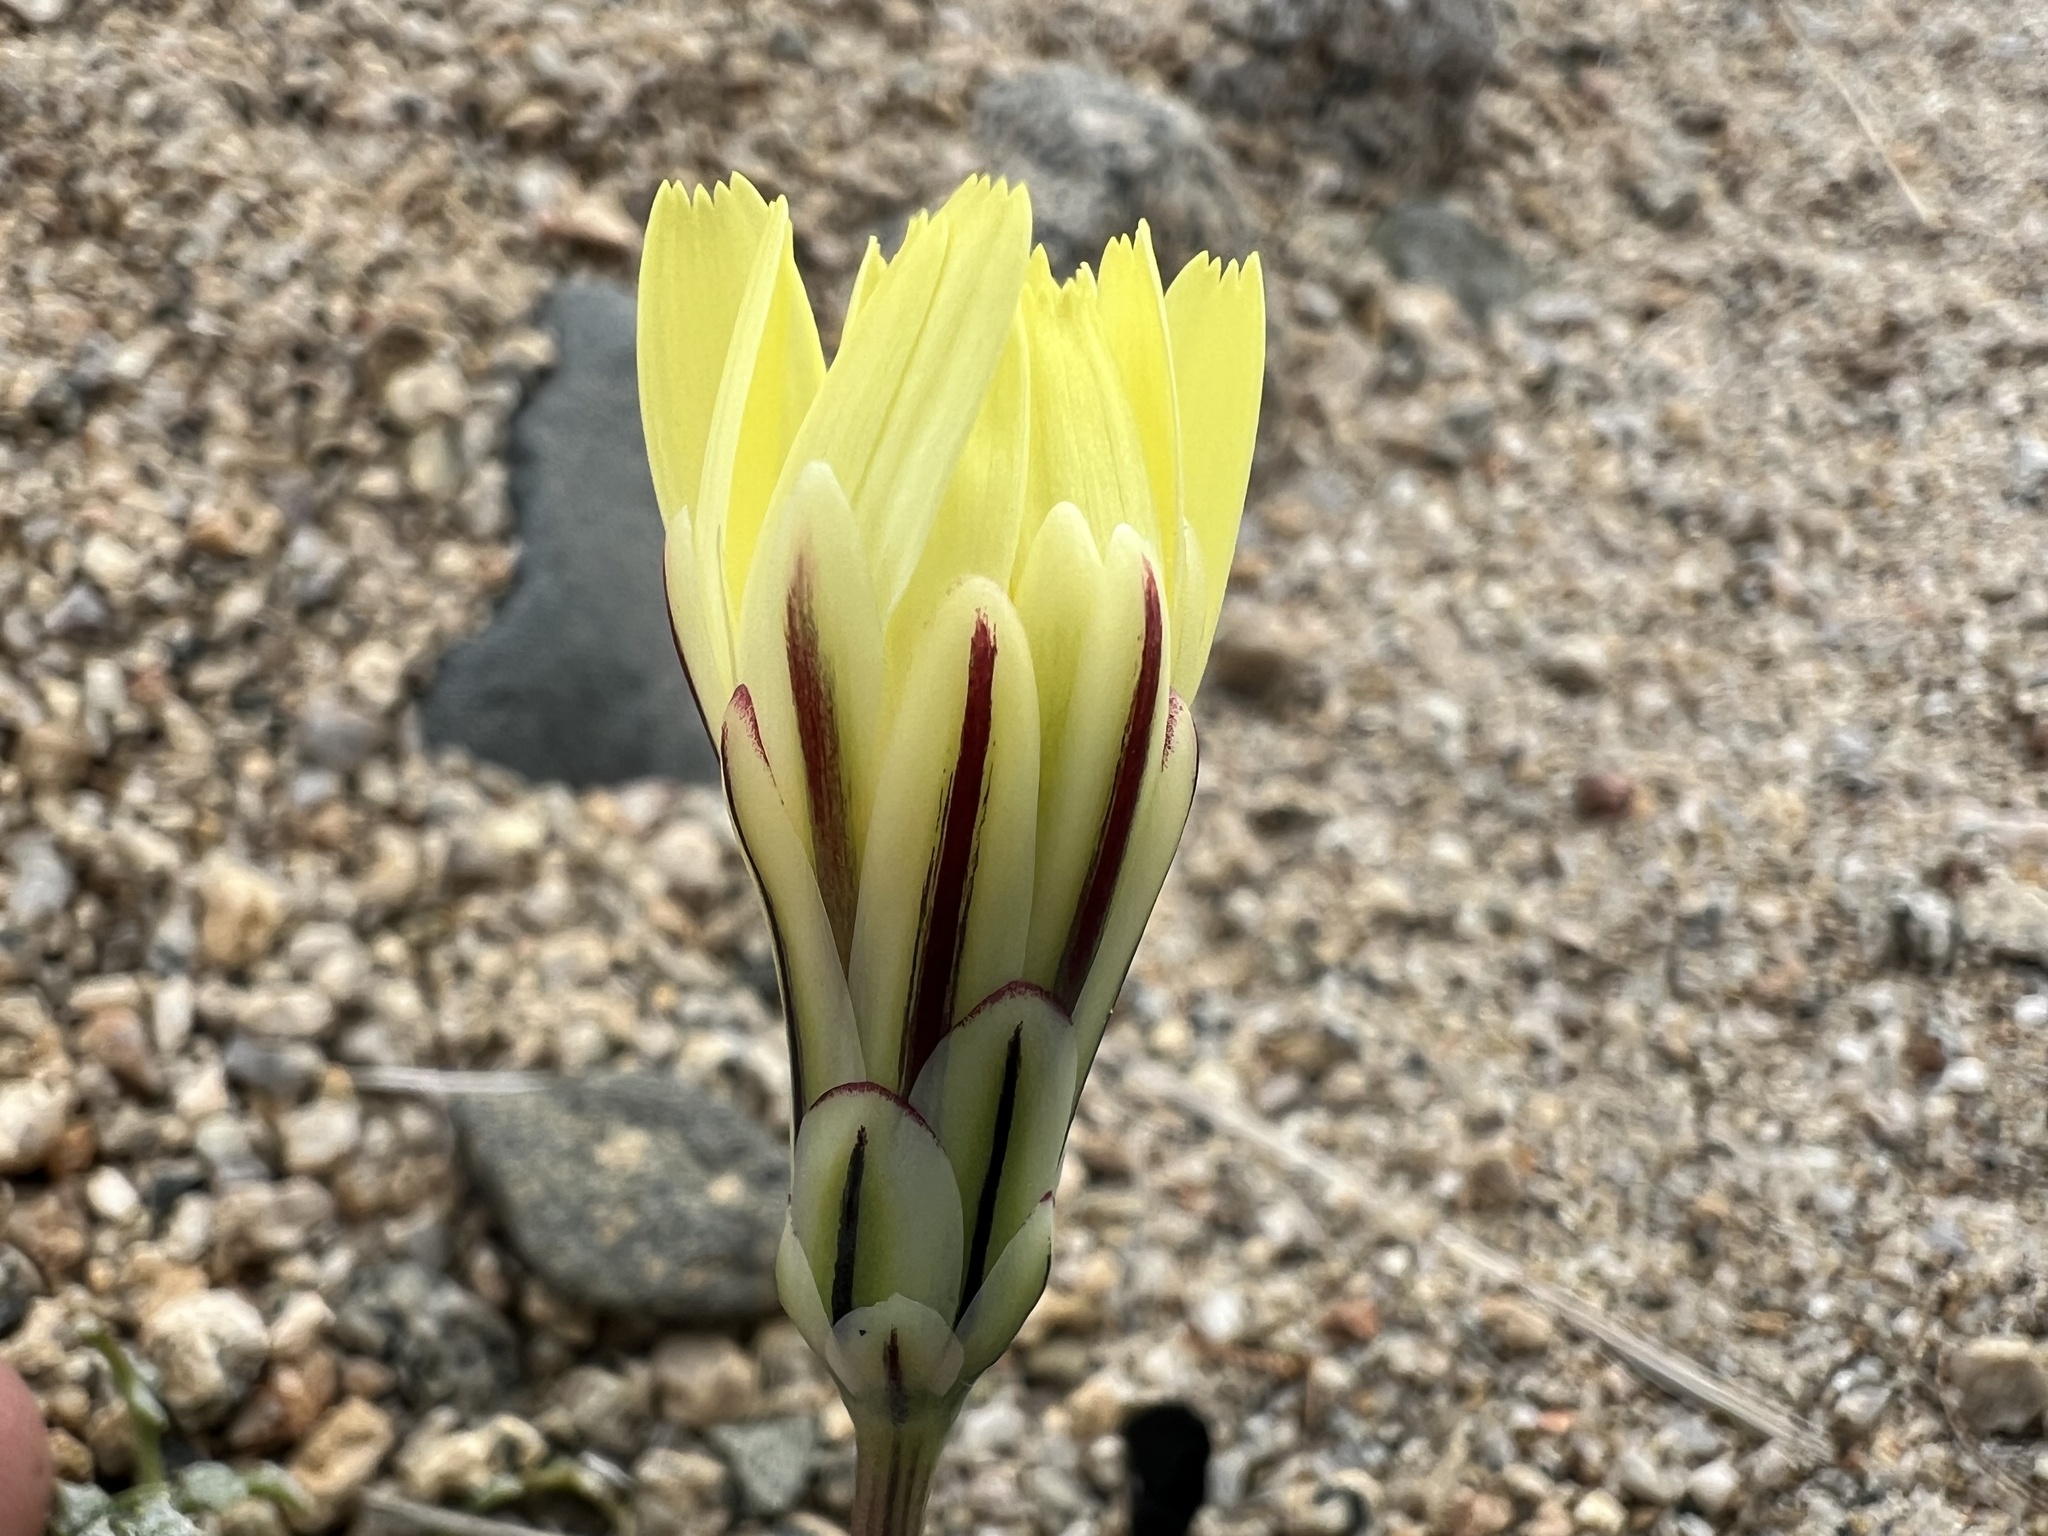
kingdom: Plantae
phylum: Tracheophyta
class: Magnoliopsida
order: Asterales
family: Asteraceae
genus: Anisocoma
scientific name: Anisocoma acaulis
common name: Scalebud
